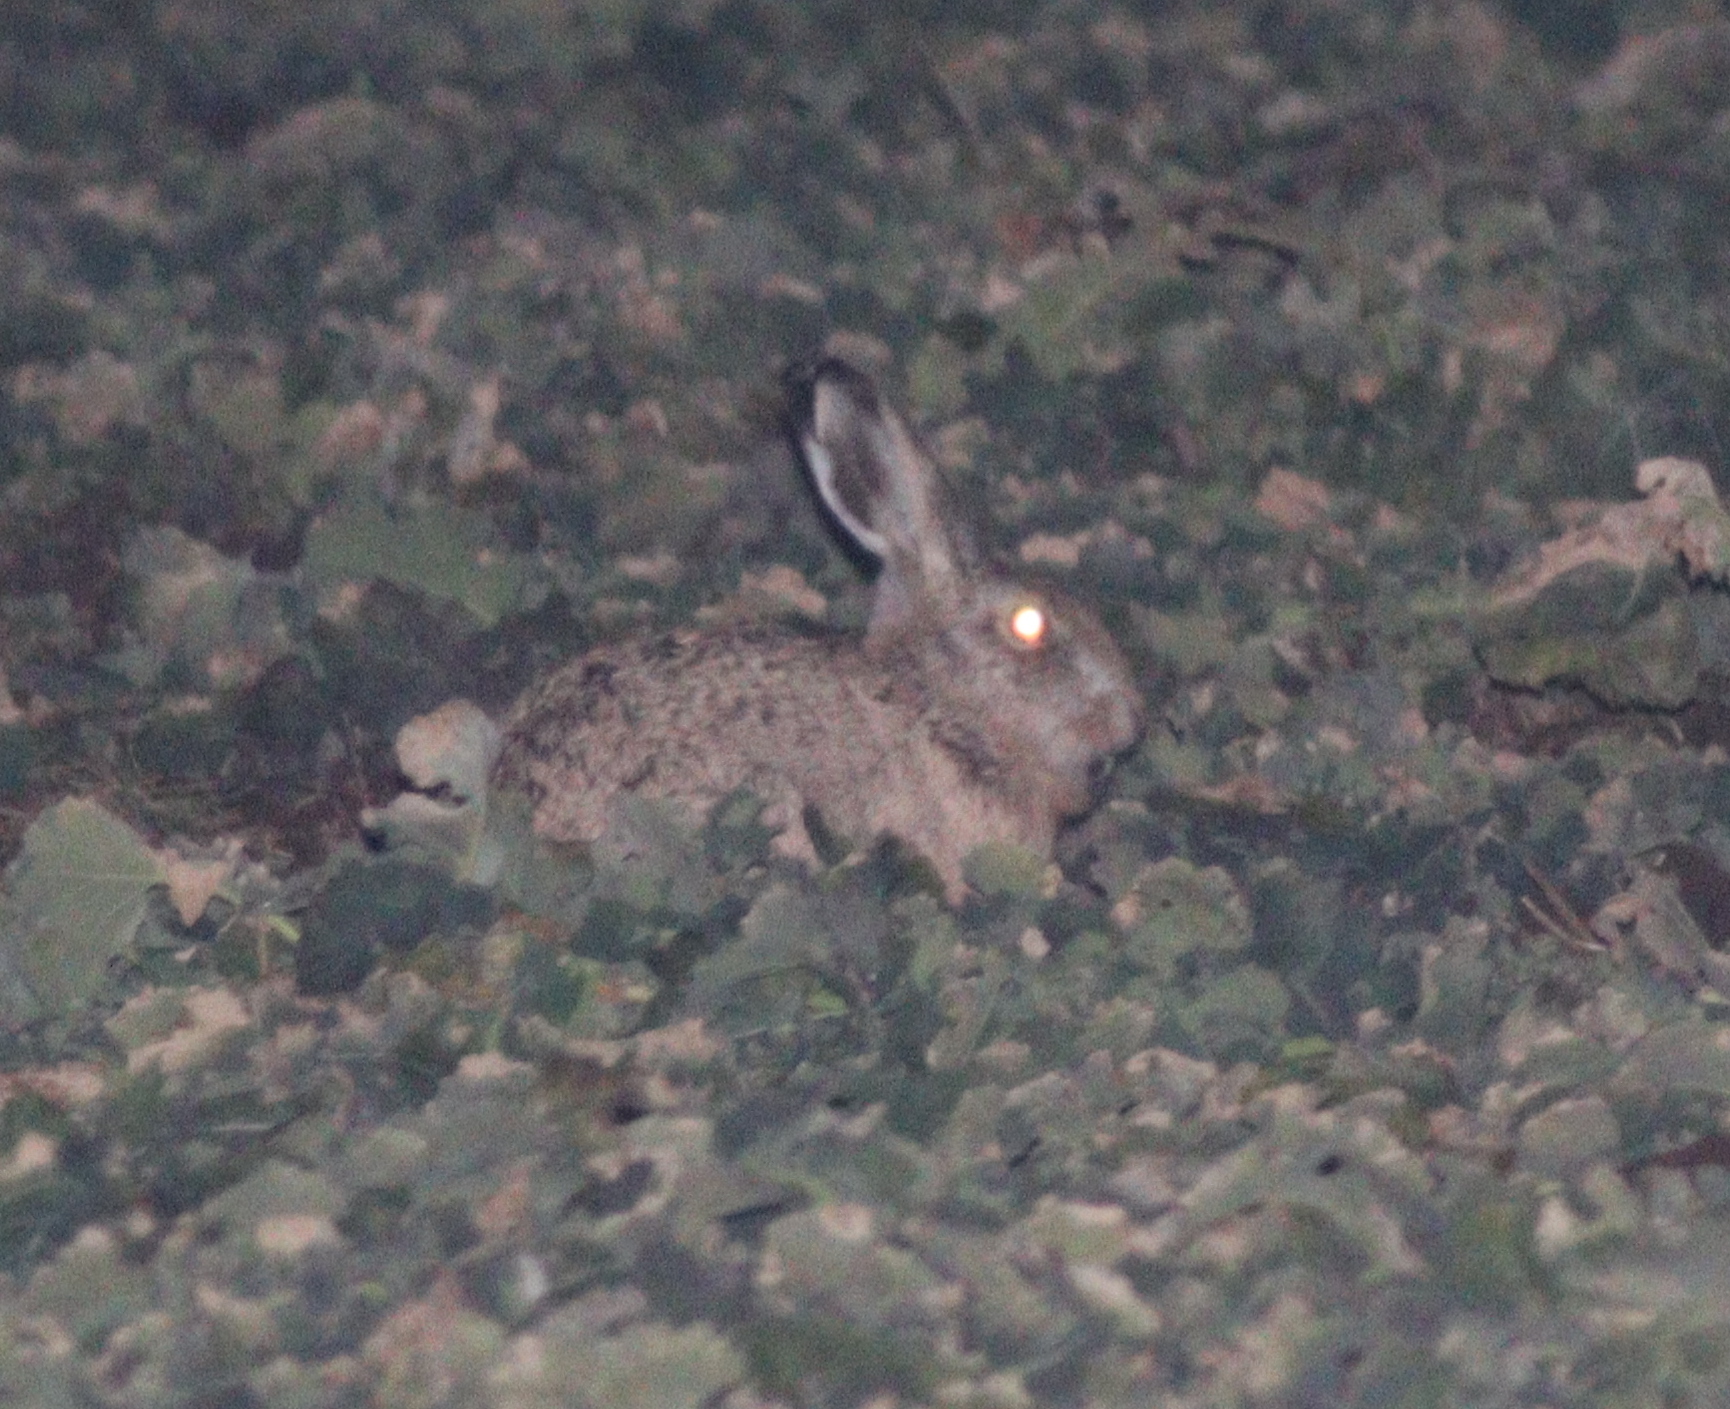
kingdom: Animalia
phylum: Chordata
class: Mammalia
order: Lagomorpha
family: Leporidae
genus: Lepus
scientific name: Lepus europaeus
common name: European hare
